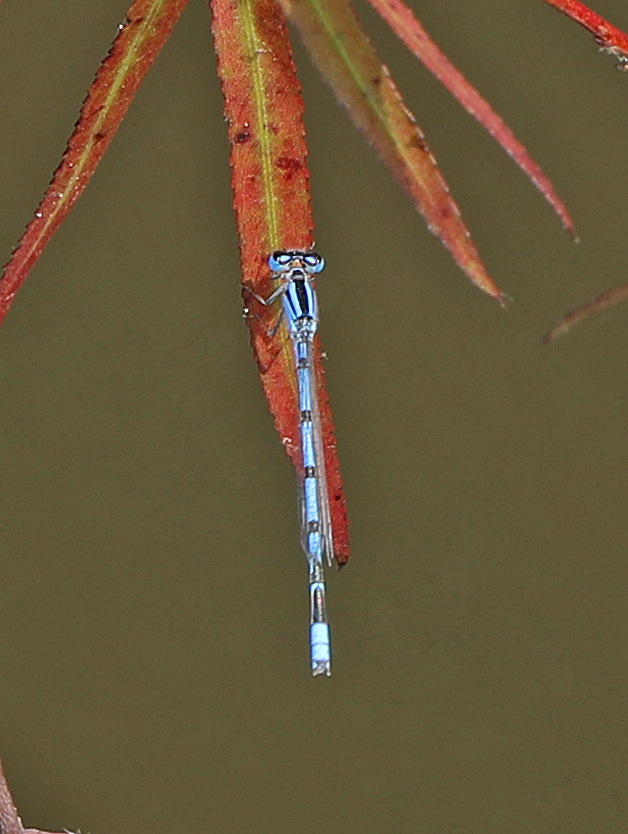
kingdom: Animalia
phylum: Arthropoda
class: Insecta
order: Odonata
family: Coenagrionidae
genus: Enallagma
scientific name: Enallagma civile
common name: Damselfly
